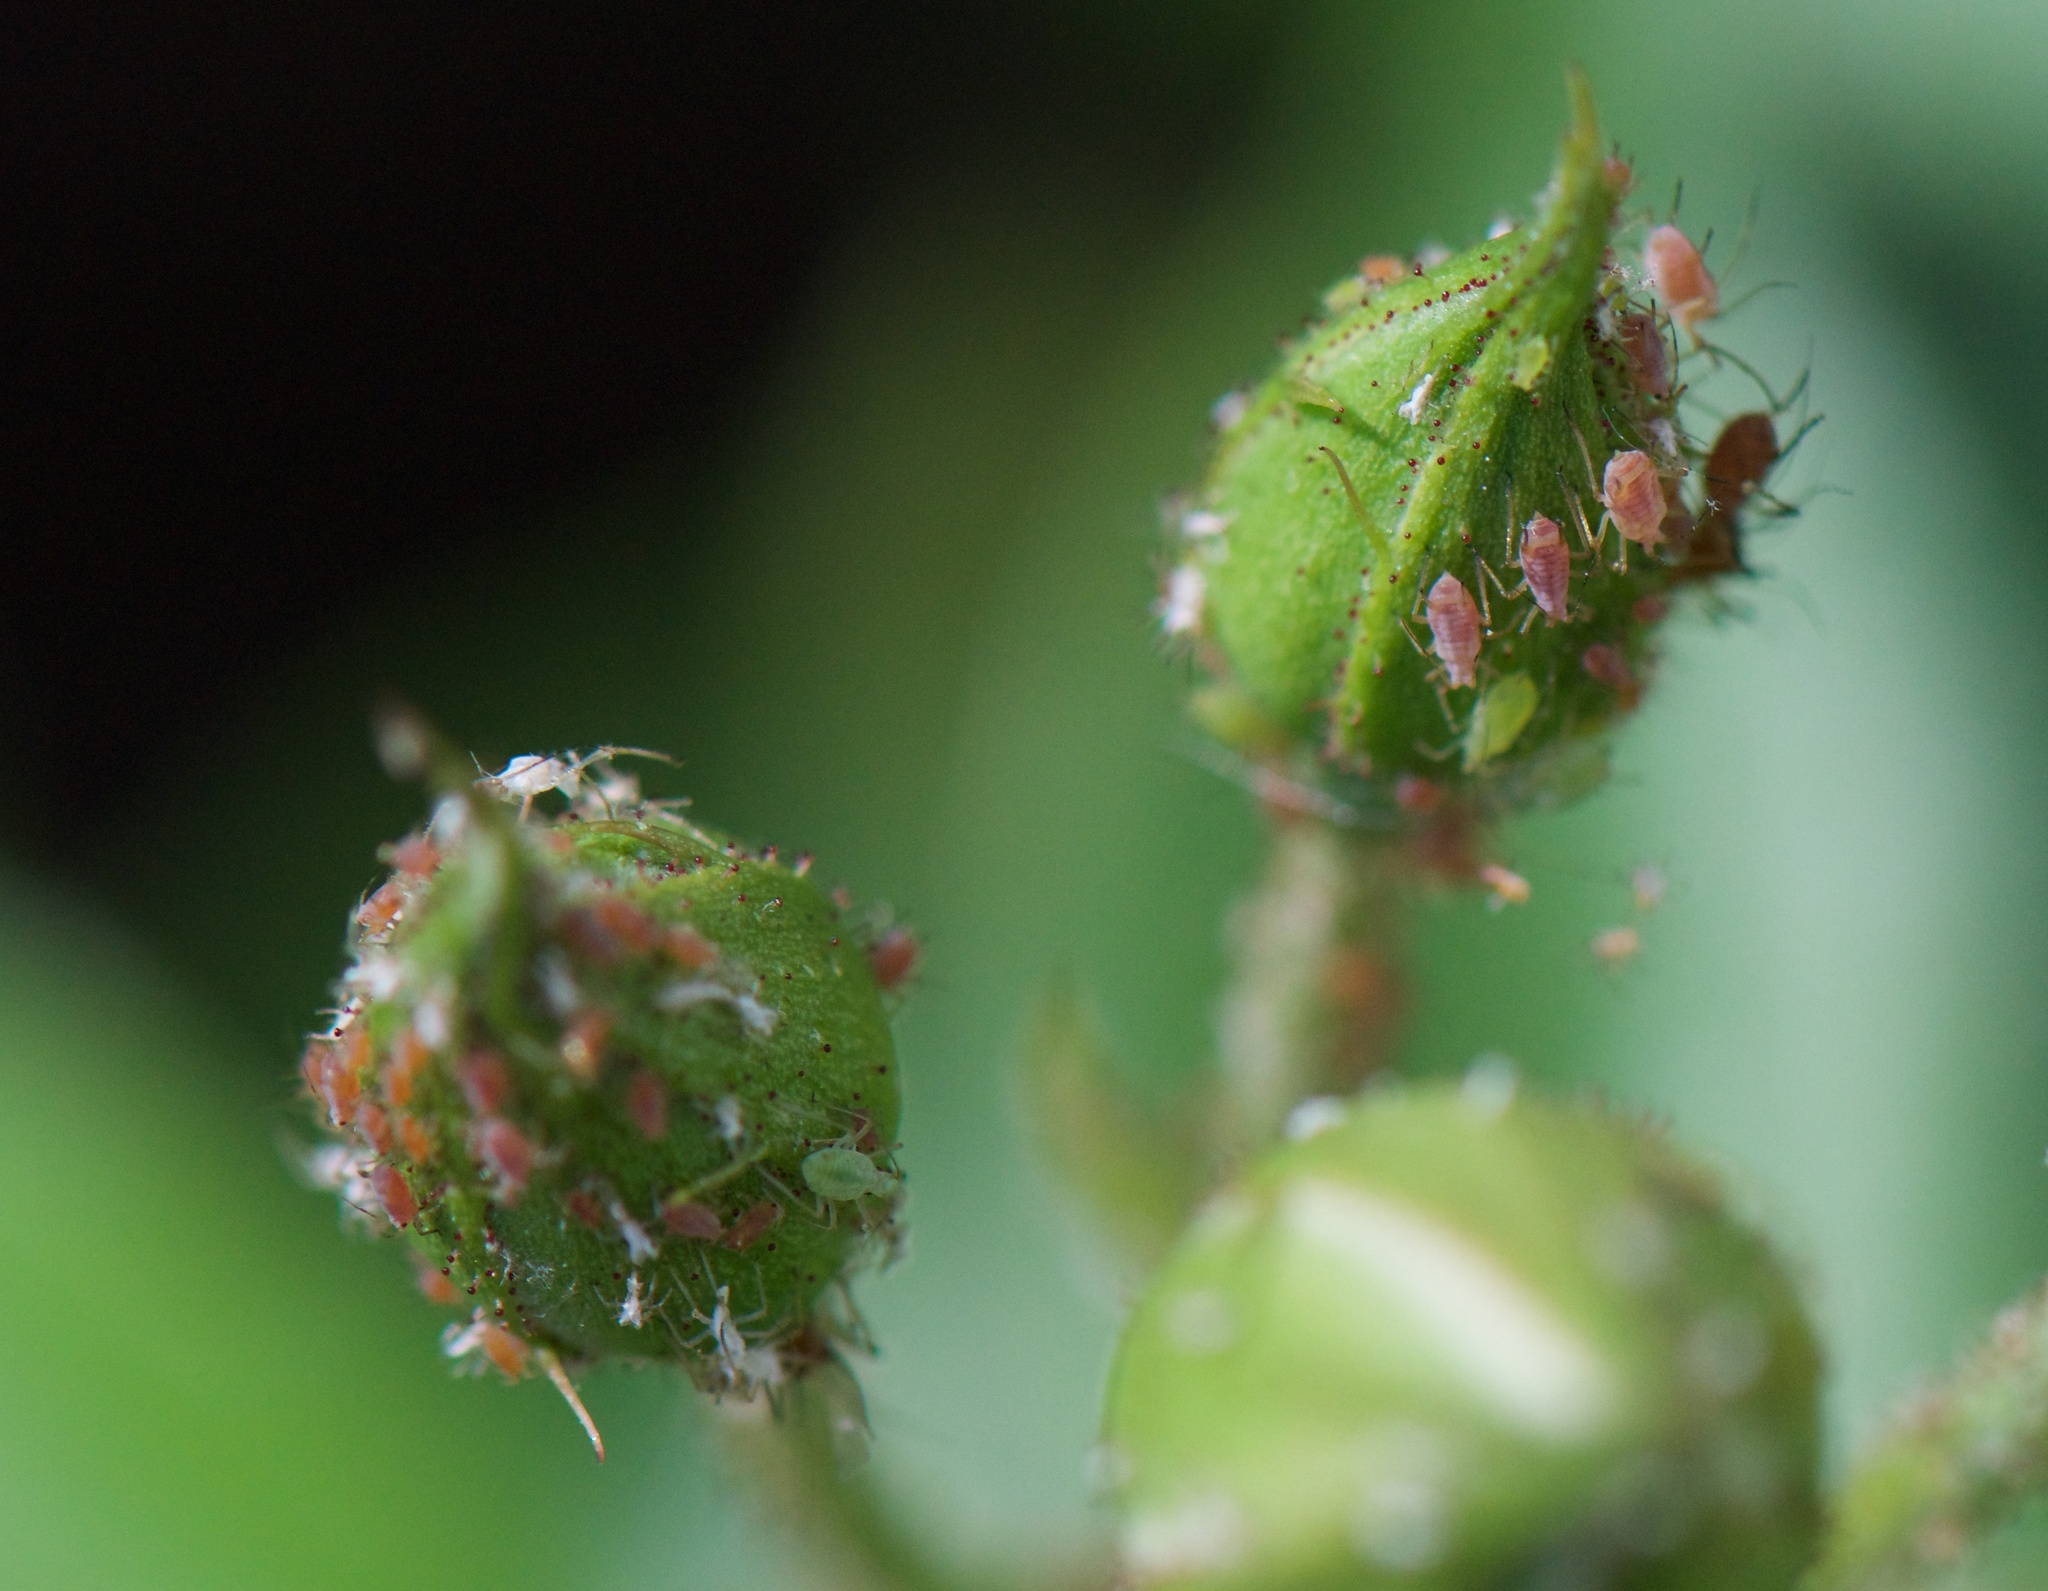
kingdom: Animalia
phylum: Arthropoda
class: Insecta
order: Hemiptera
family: Aphididae
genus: Macrosiphum
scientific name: Macrosiphum rosae
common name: Rose aphid
